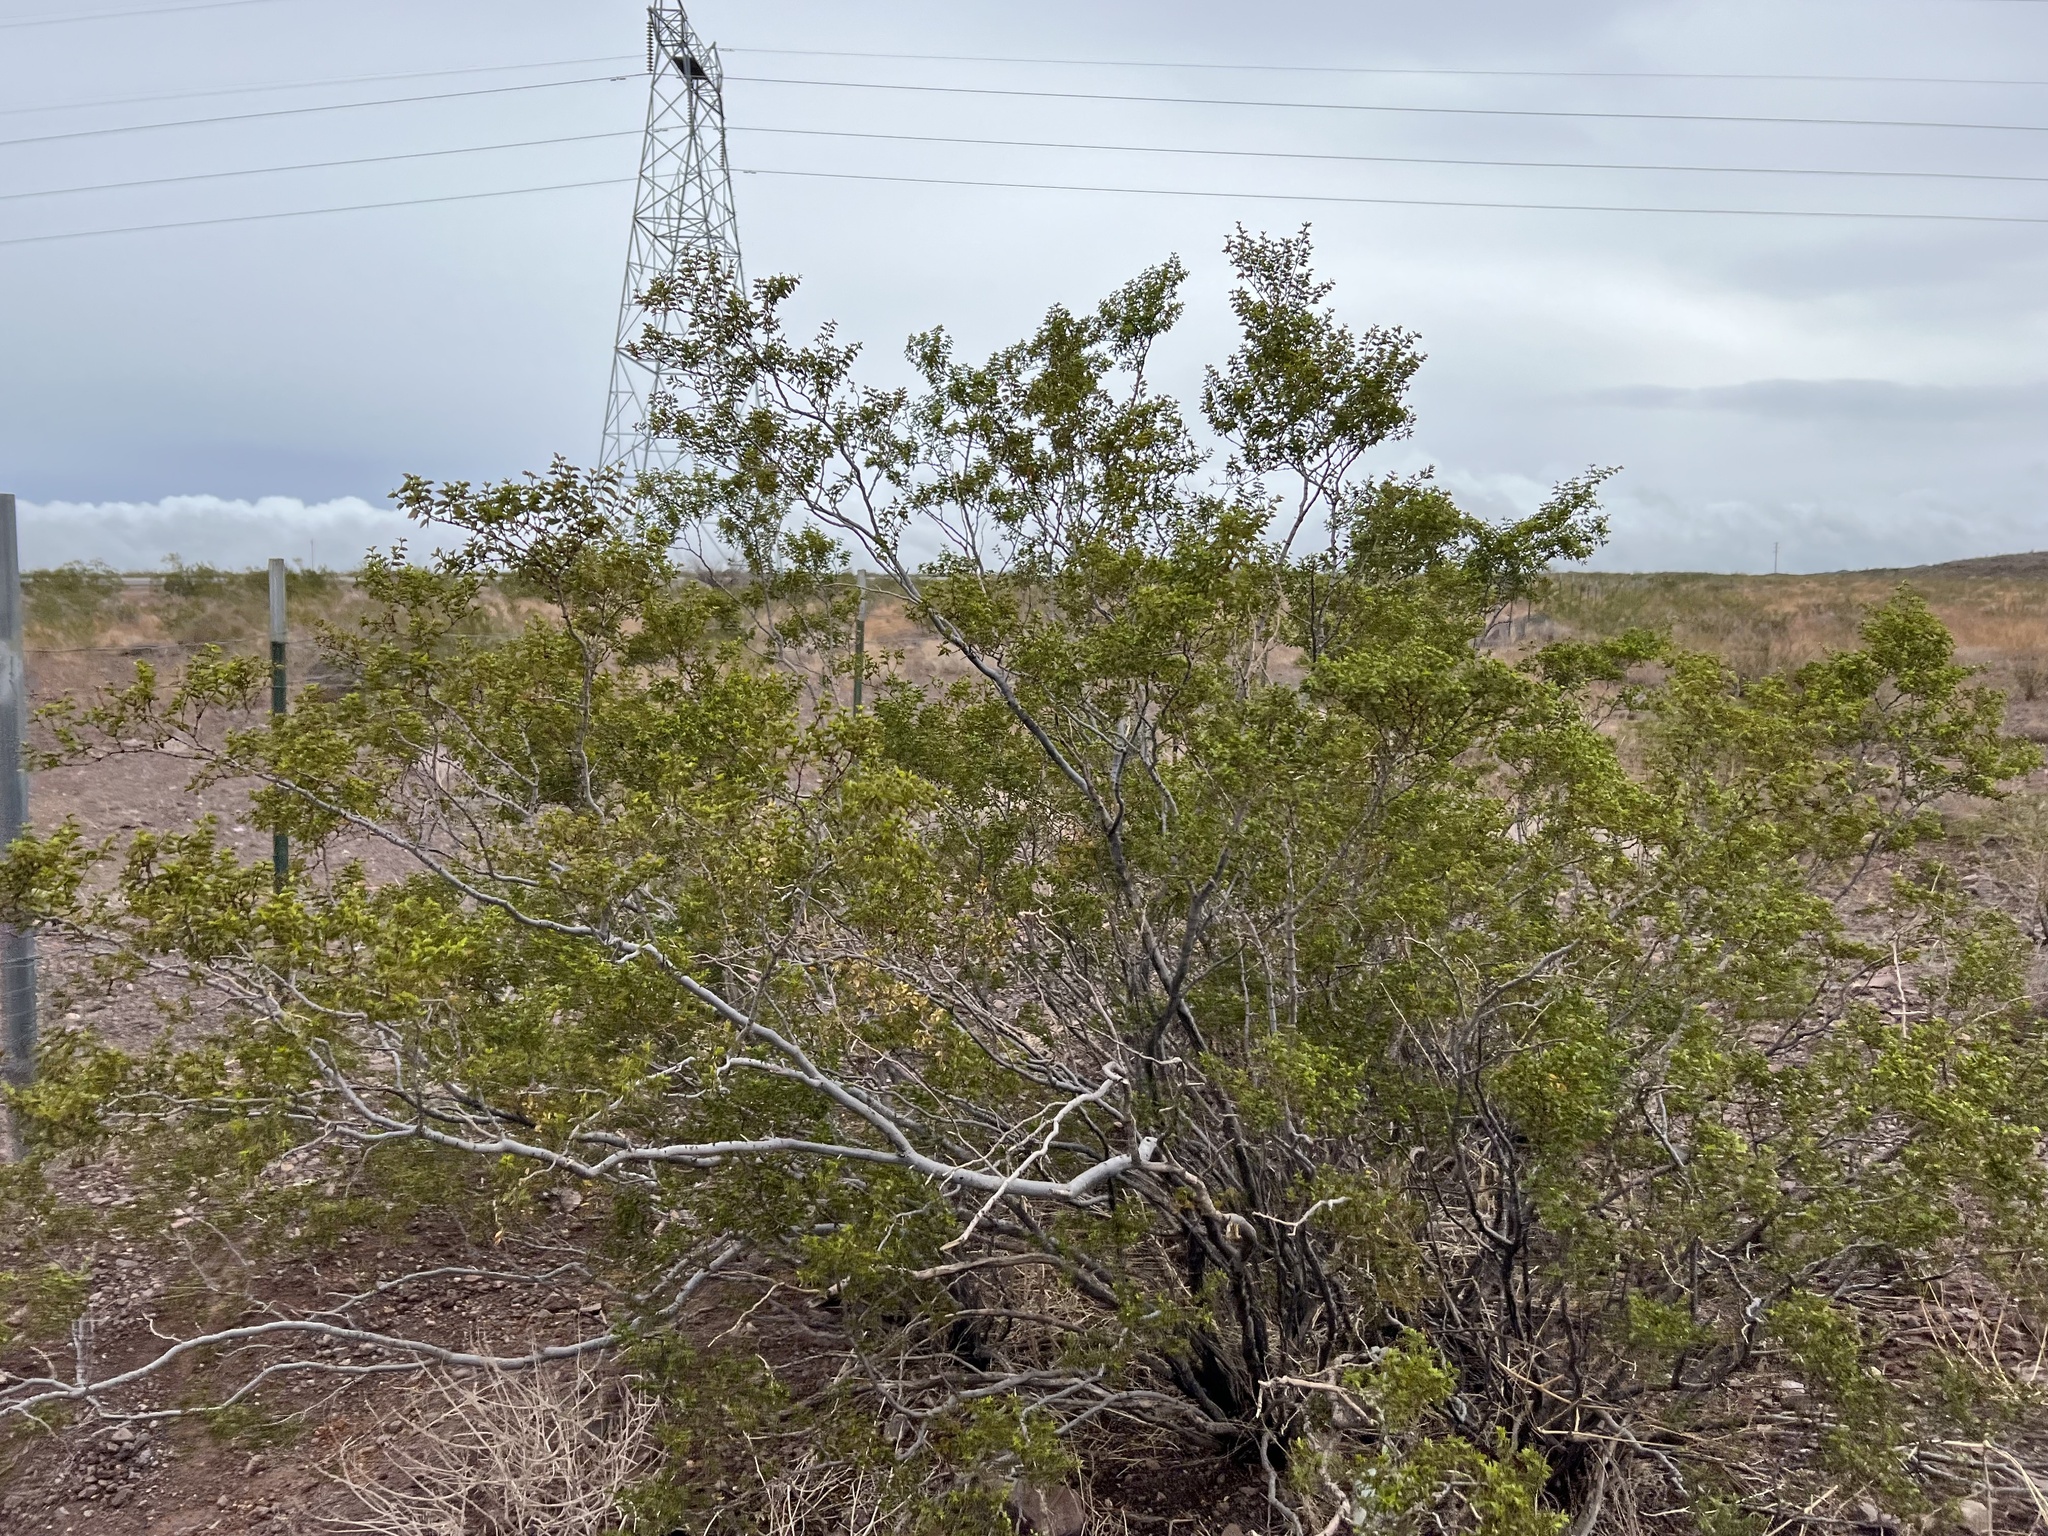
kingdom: Plantae
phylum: Tracheophyta
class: Magnoliopsida
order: Zygophyllales
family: Zygophyllaceae
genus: Larrea
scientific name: Larrea tridentata
